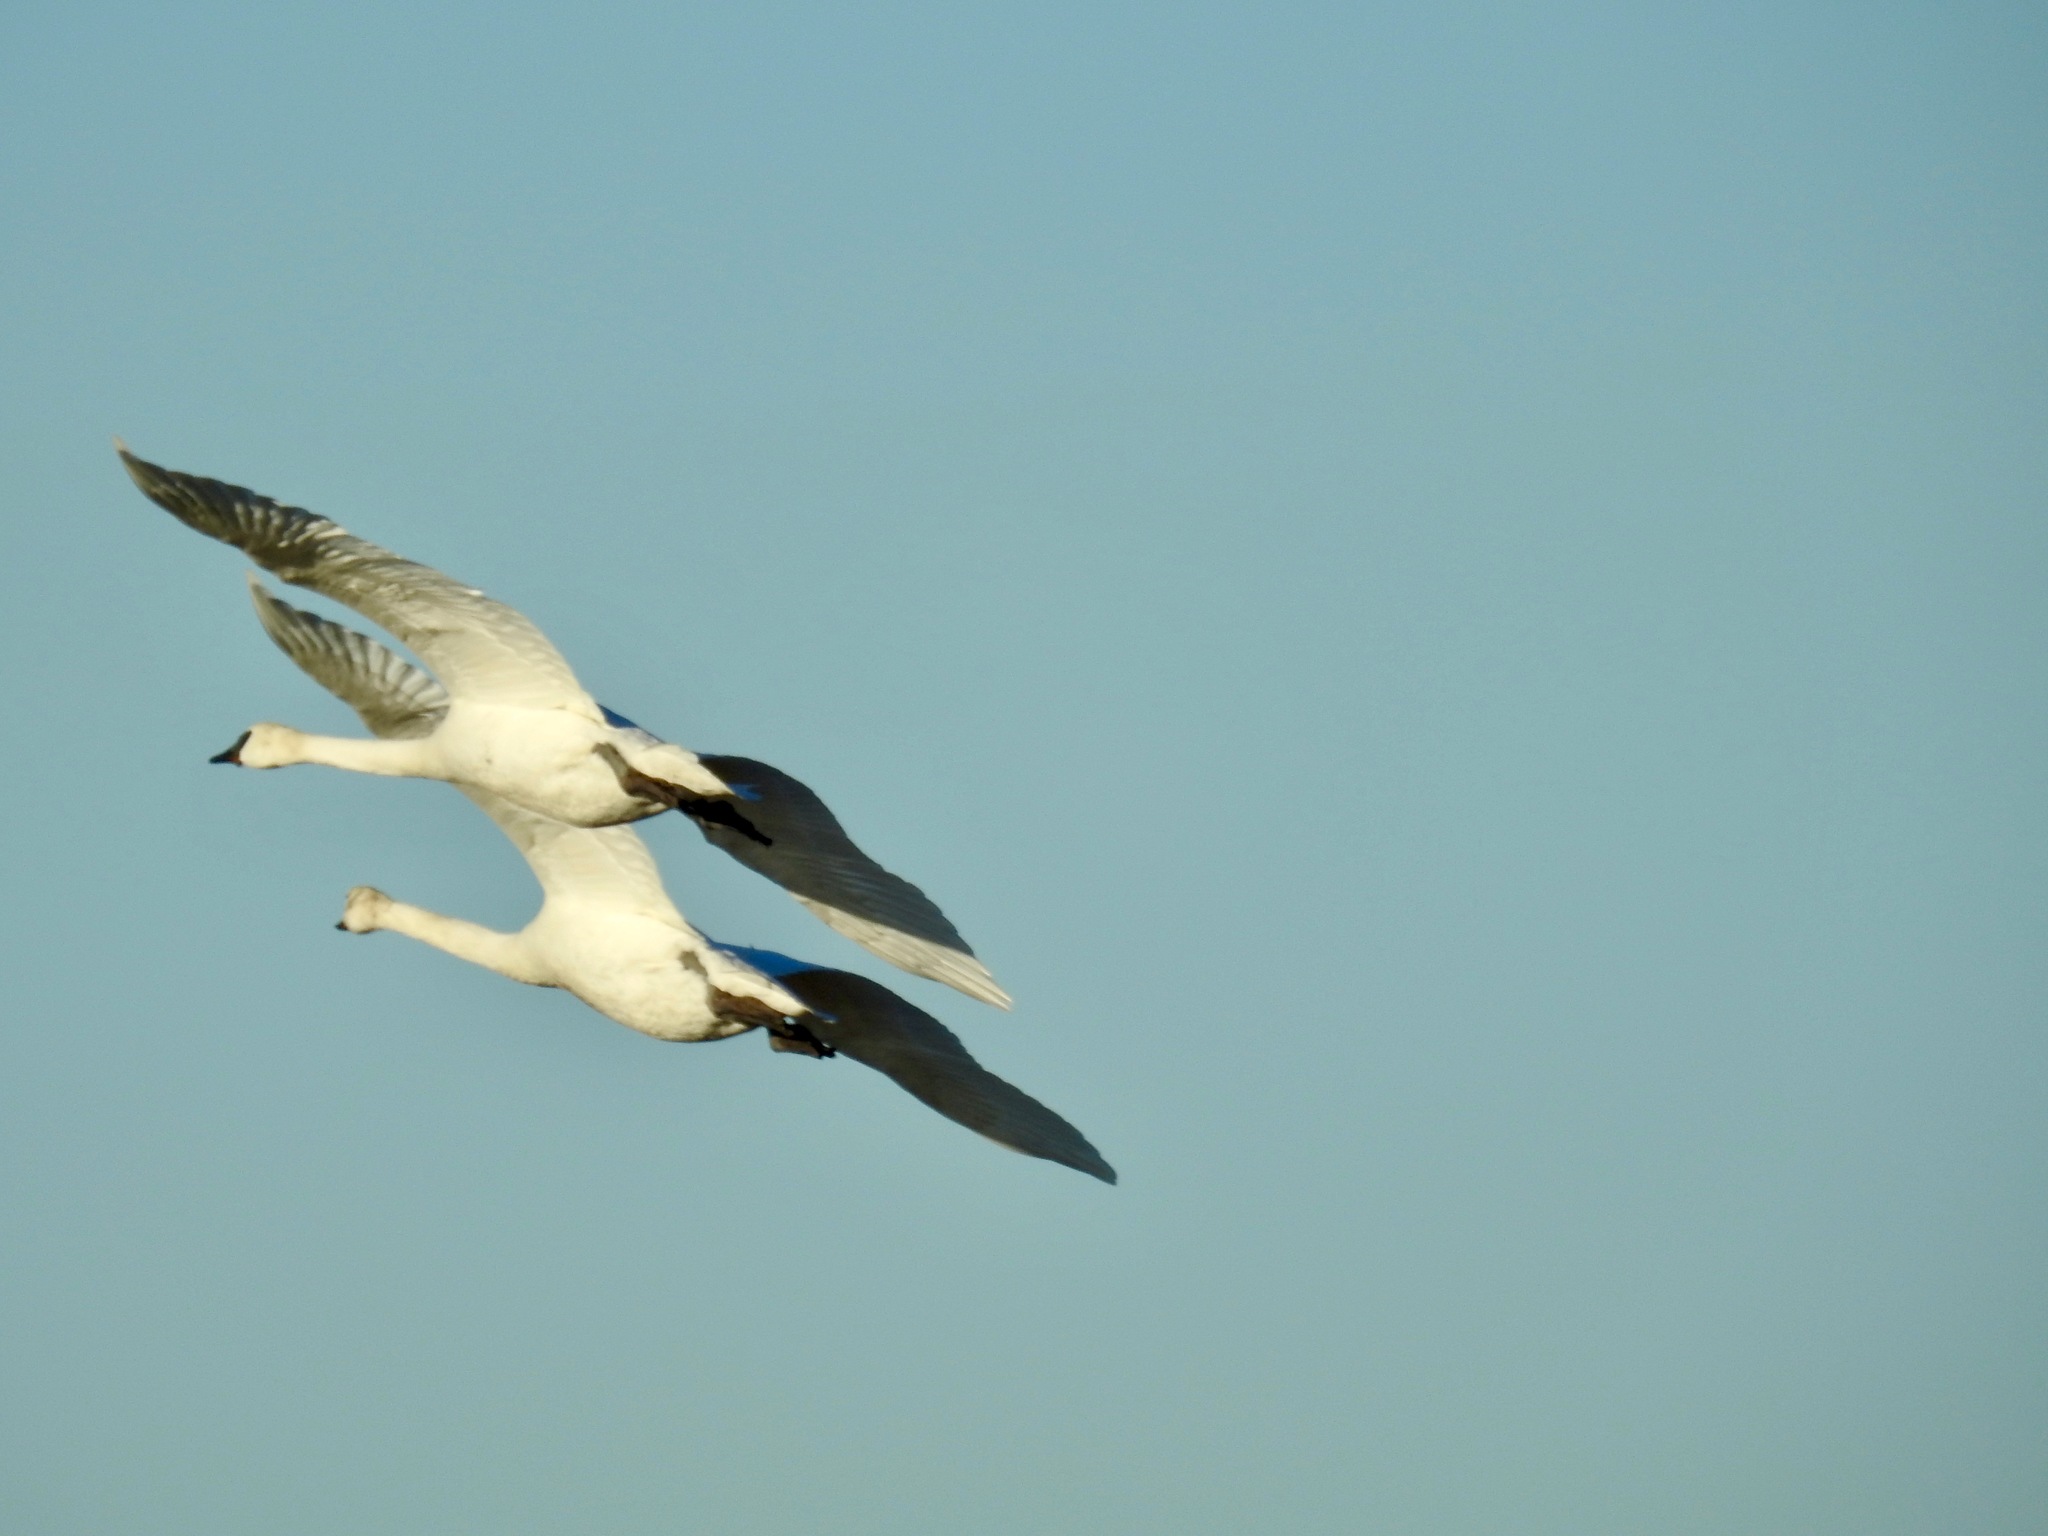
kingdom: Animalia
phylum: Chordata
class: Aves
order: Anseriformes
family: Anatidae
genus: Cygnus
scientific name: Cygnus buccinator
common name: Trumpeter swan
